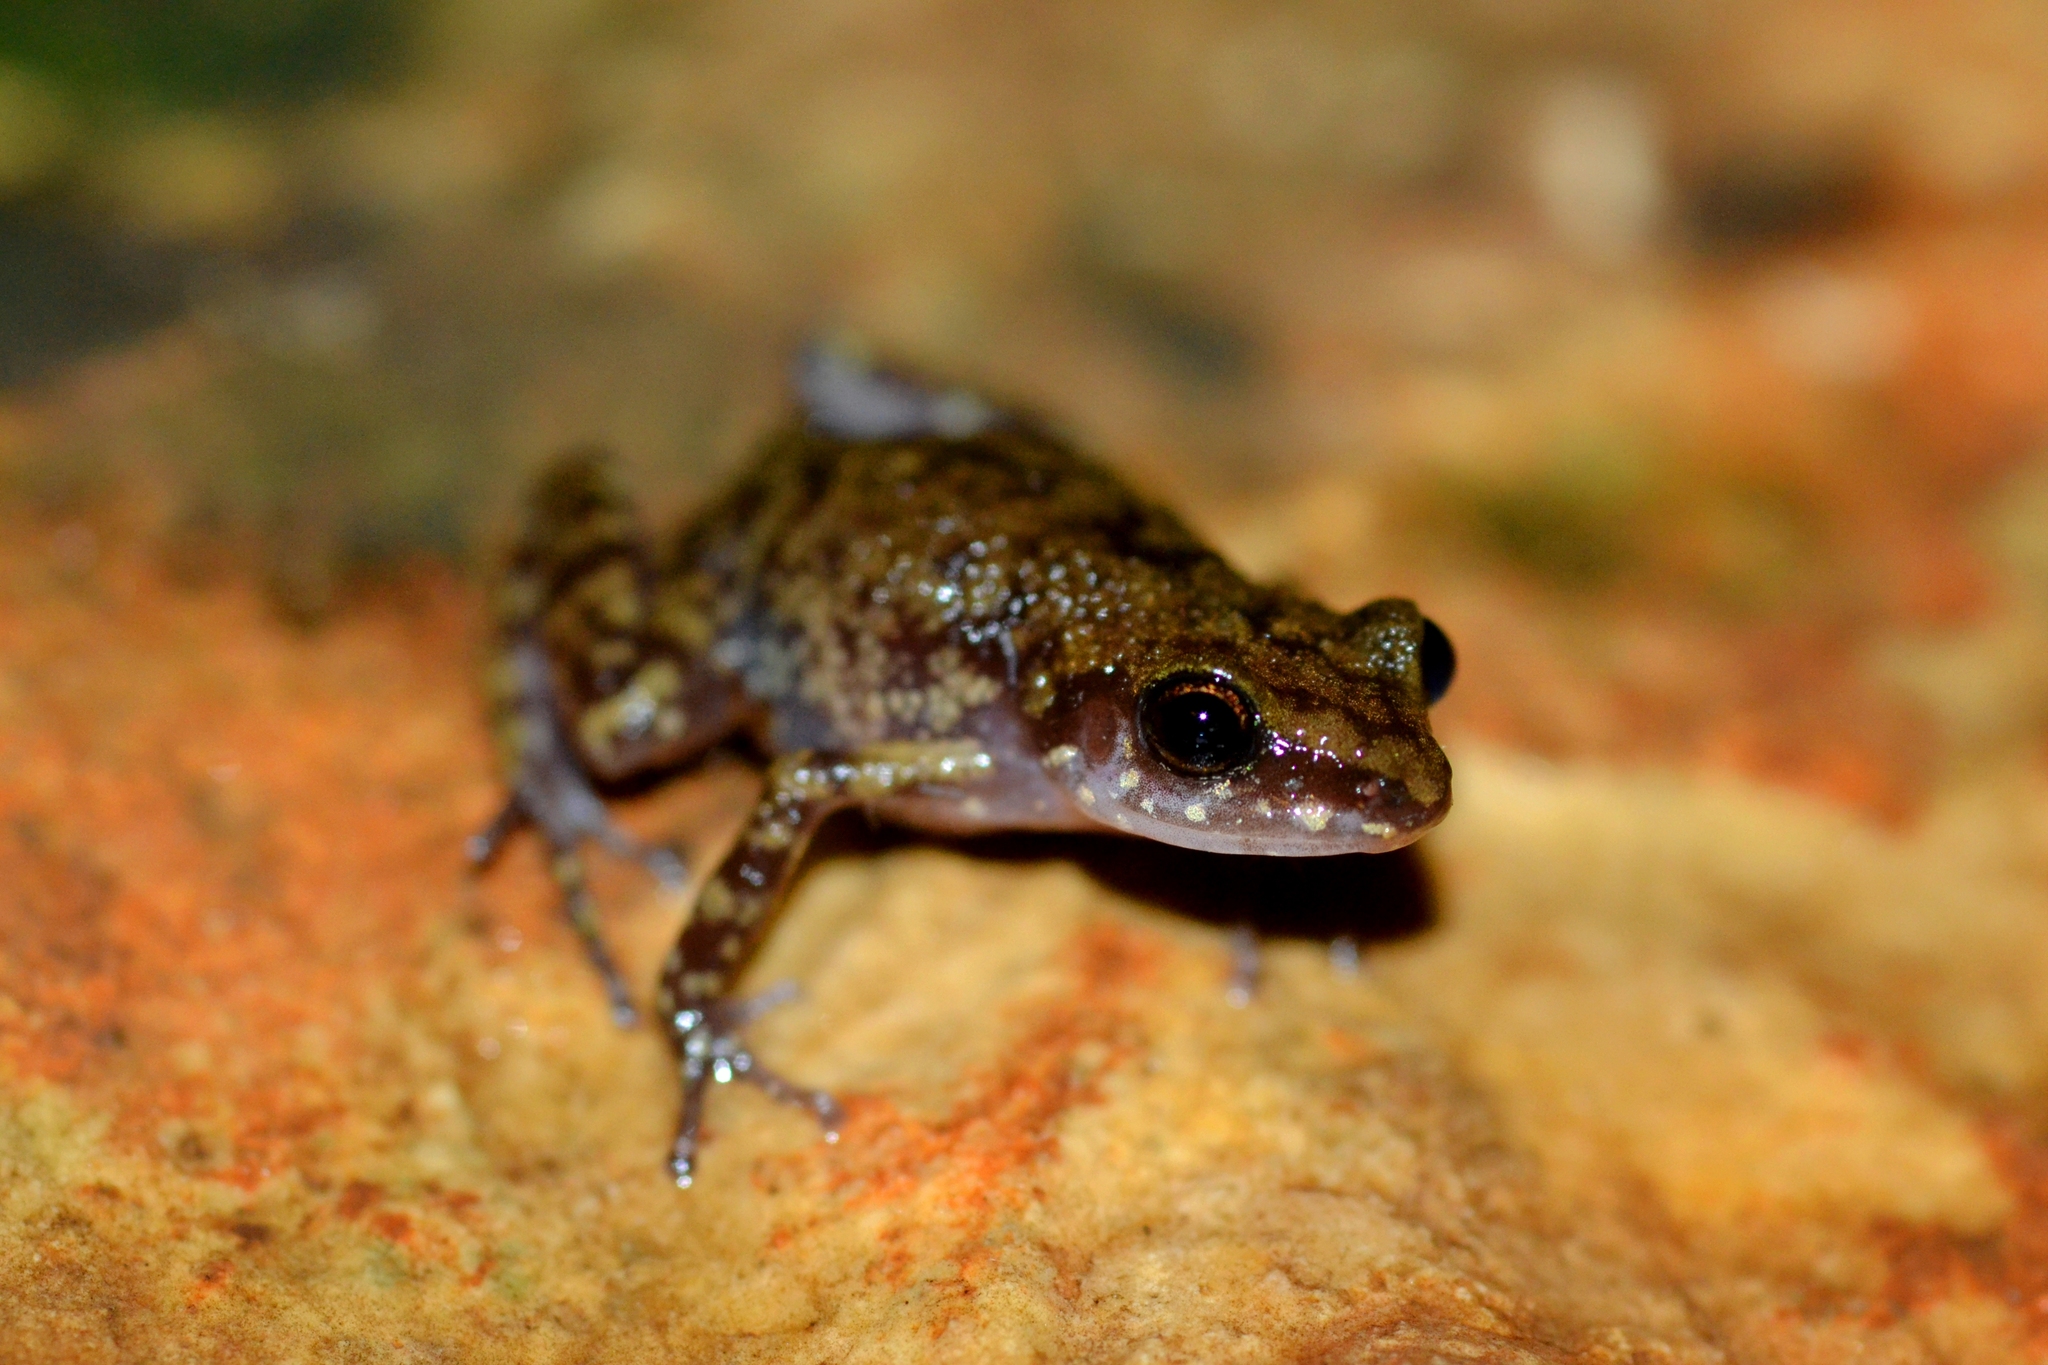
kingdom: Animalia
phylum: Chordata
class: Amphibia
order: Anura
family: Eleutherodactylidae
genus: Eleutherodactylus
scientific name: Eleutherodactylus pipilans
